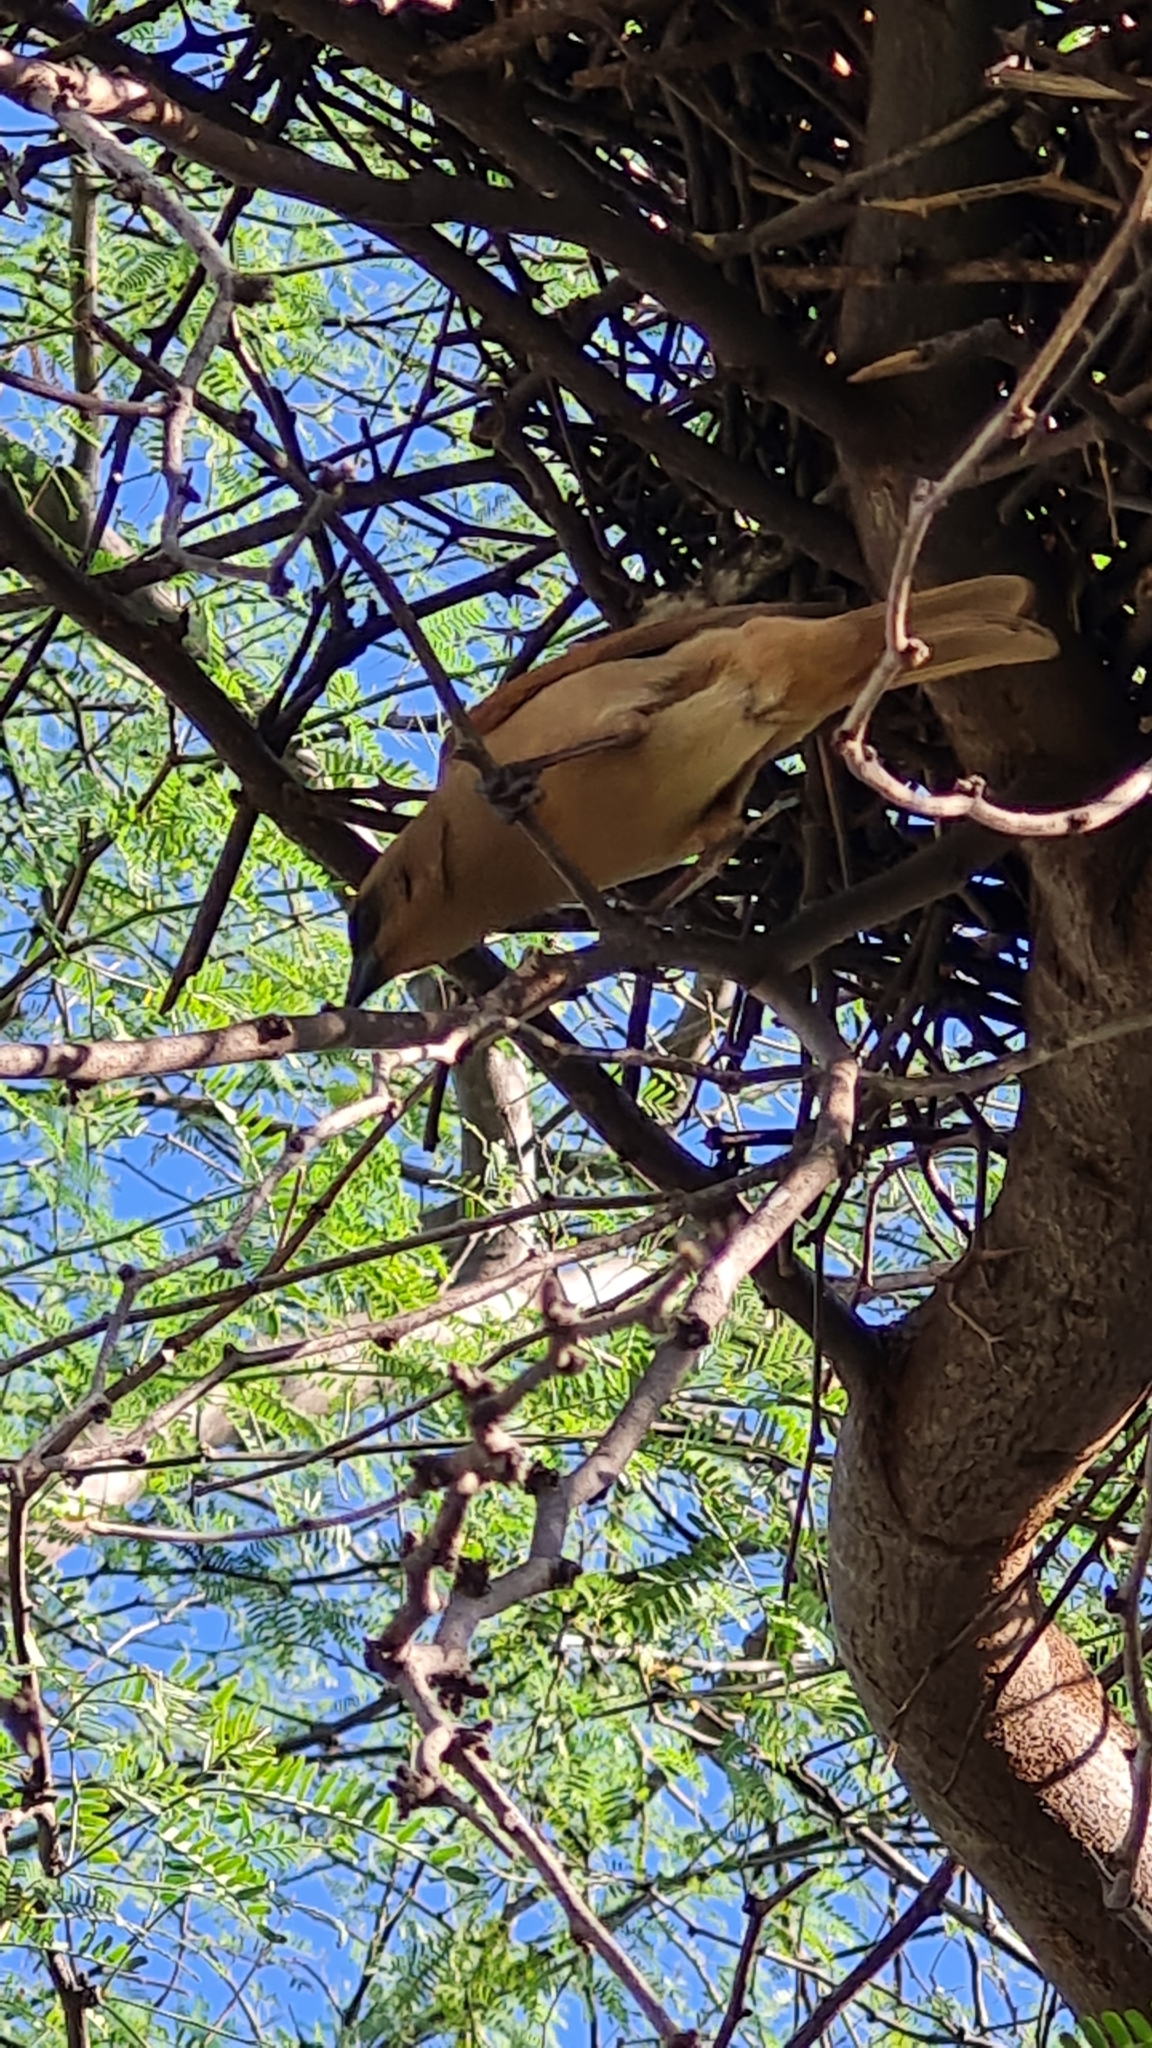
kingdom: Animalia
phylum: Chordata
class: Aves
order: Passeriformes
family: Icteridae
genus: Agelaioides
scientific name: Agelaioides badius
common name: Baywing
